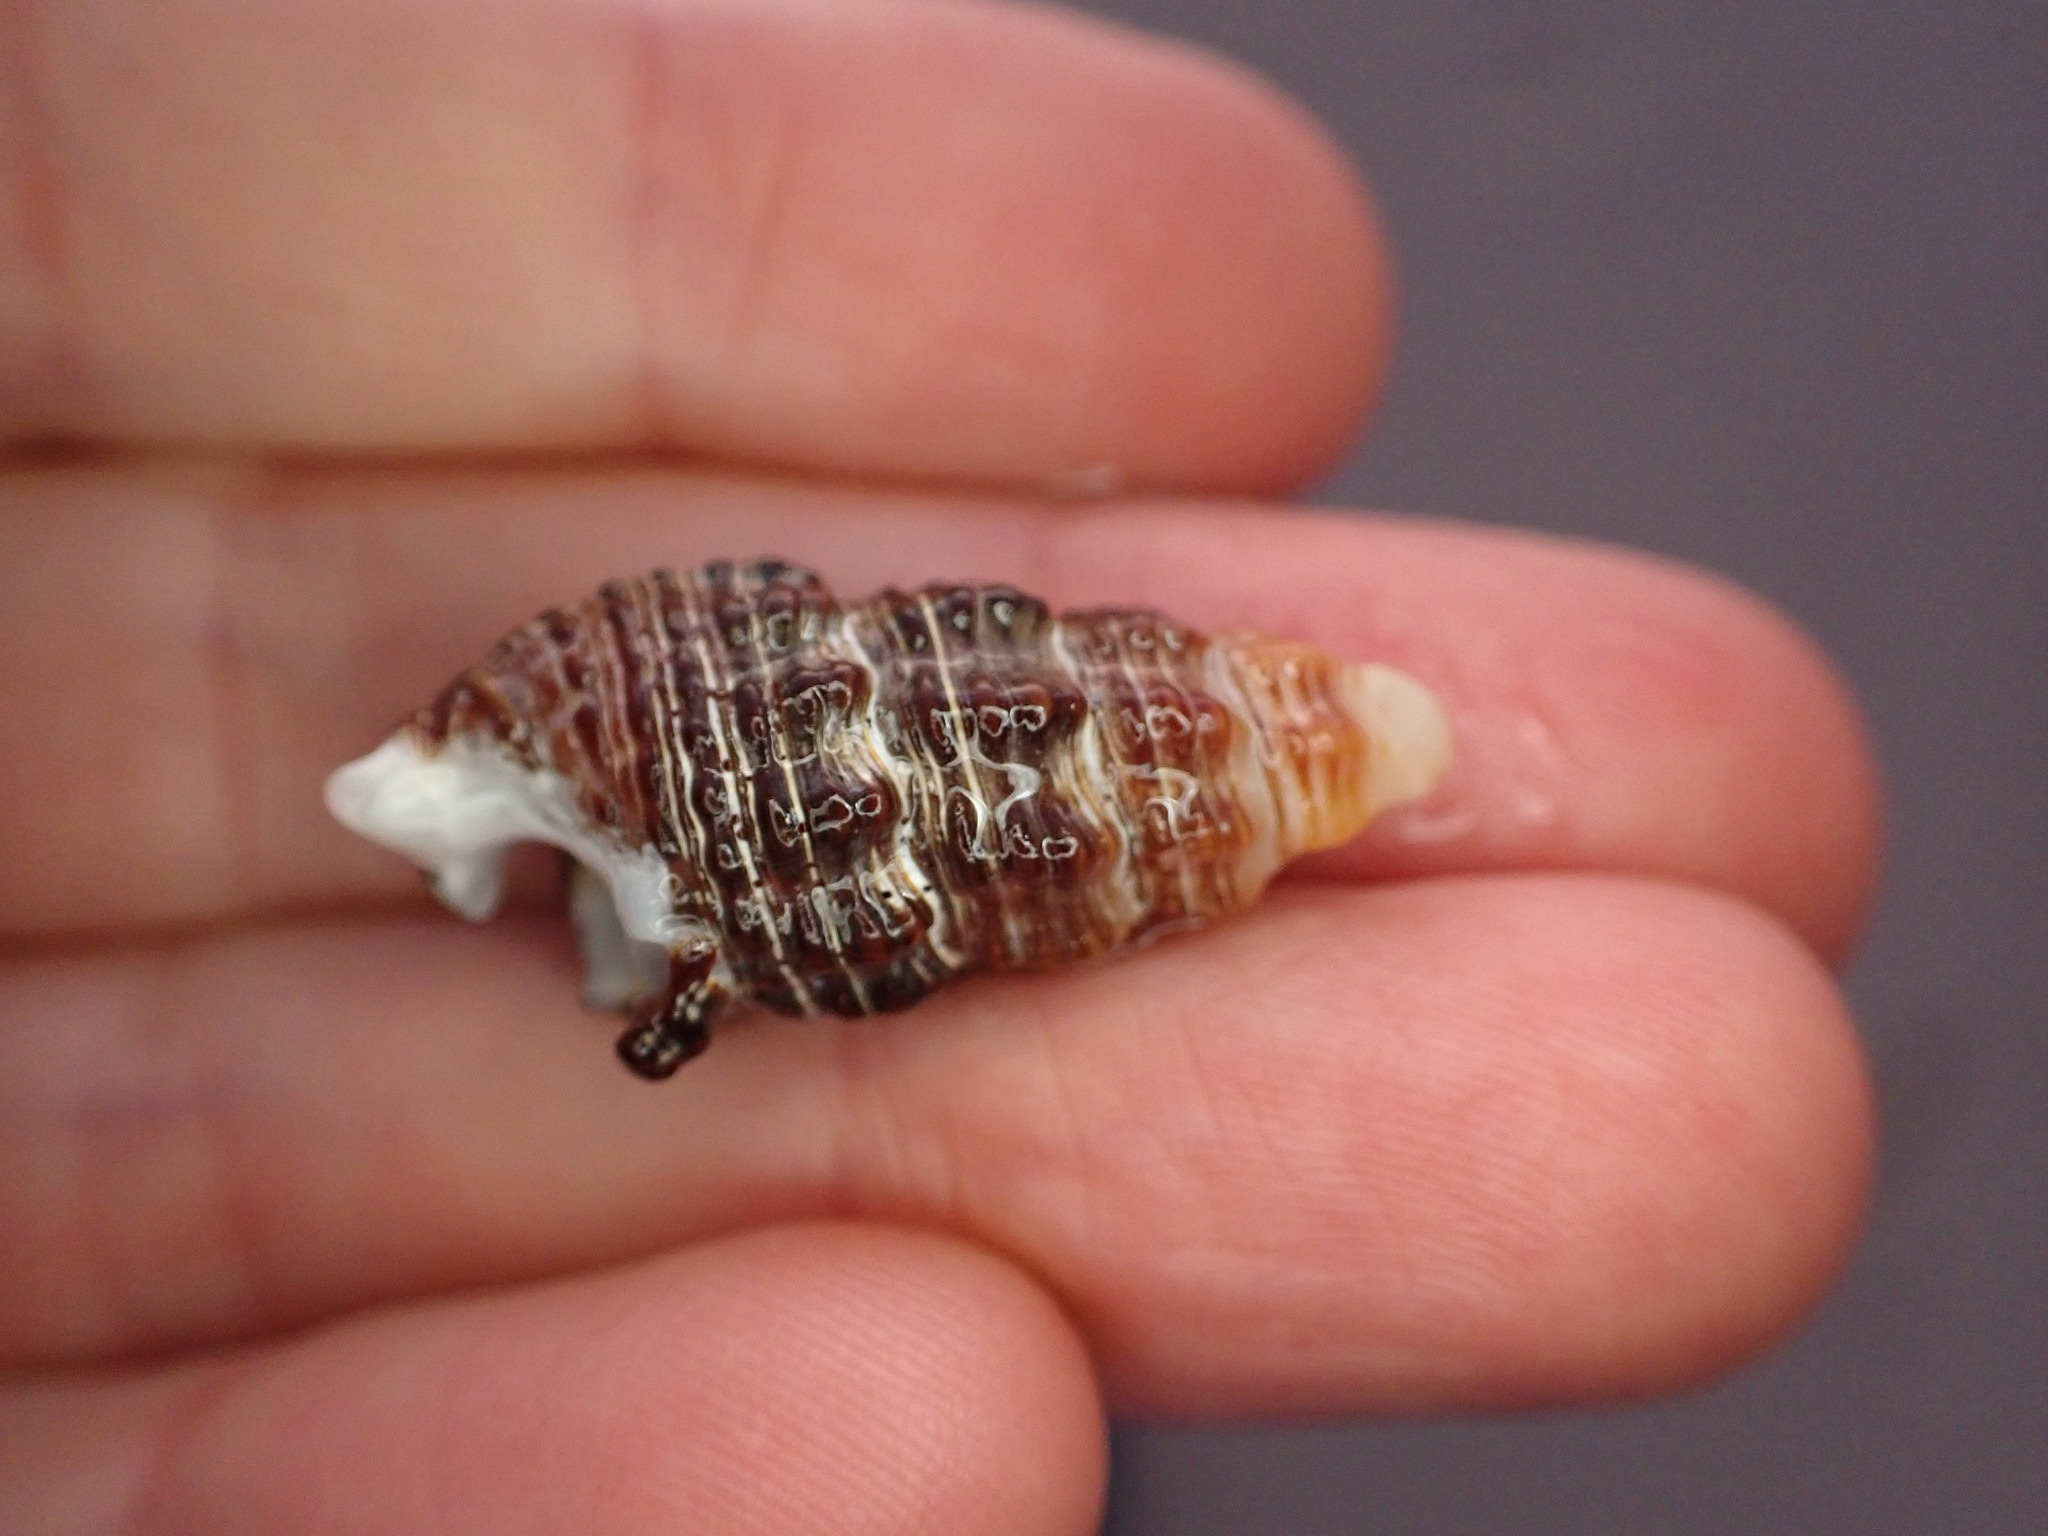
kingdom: Animalia
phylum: Mollusca
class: Gastropoda
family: Batillariidae
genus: Batillaria
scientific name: Batillaria australis
